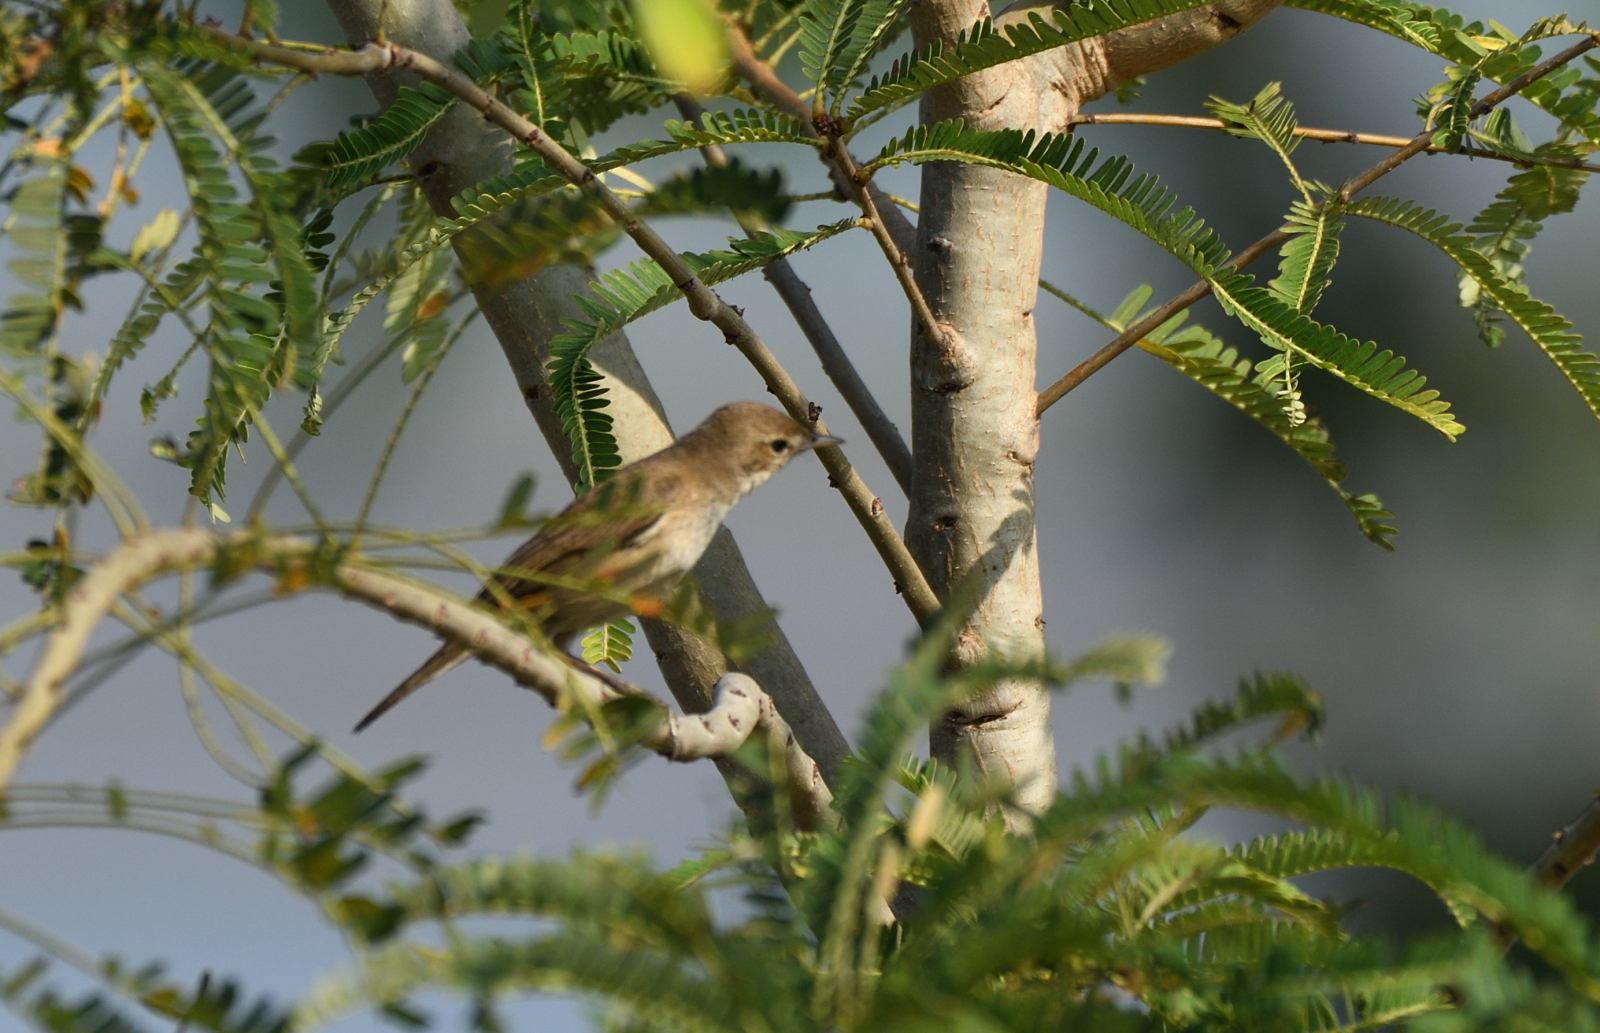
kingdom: Animalia
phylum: Chordata
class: Aves
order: Passeriformes
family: Acrocephalidae
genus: Acrocephalus
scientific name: Acrocephalus stentoreus
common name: Clamorous reed warbler
